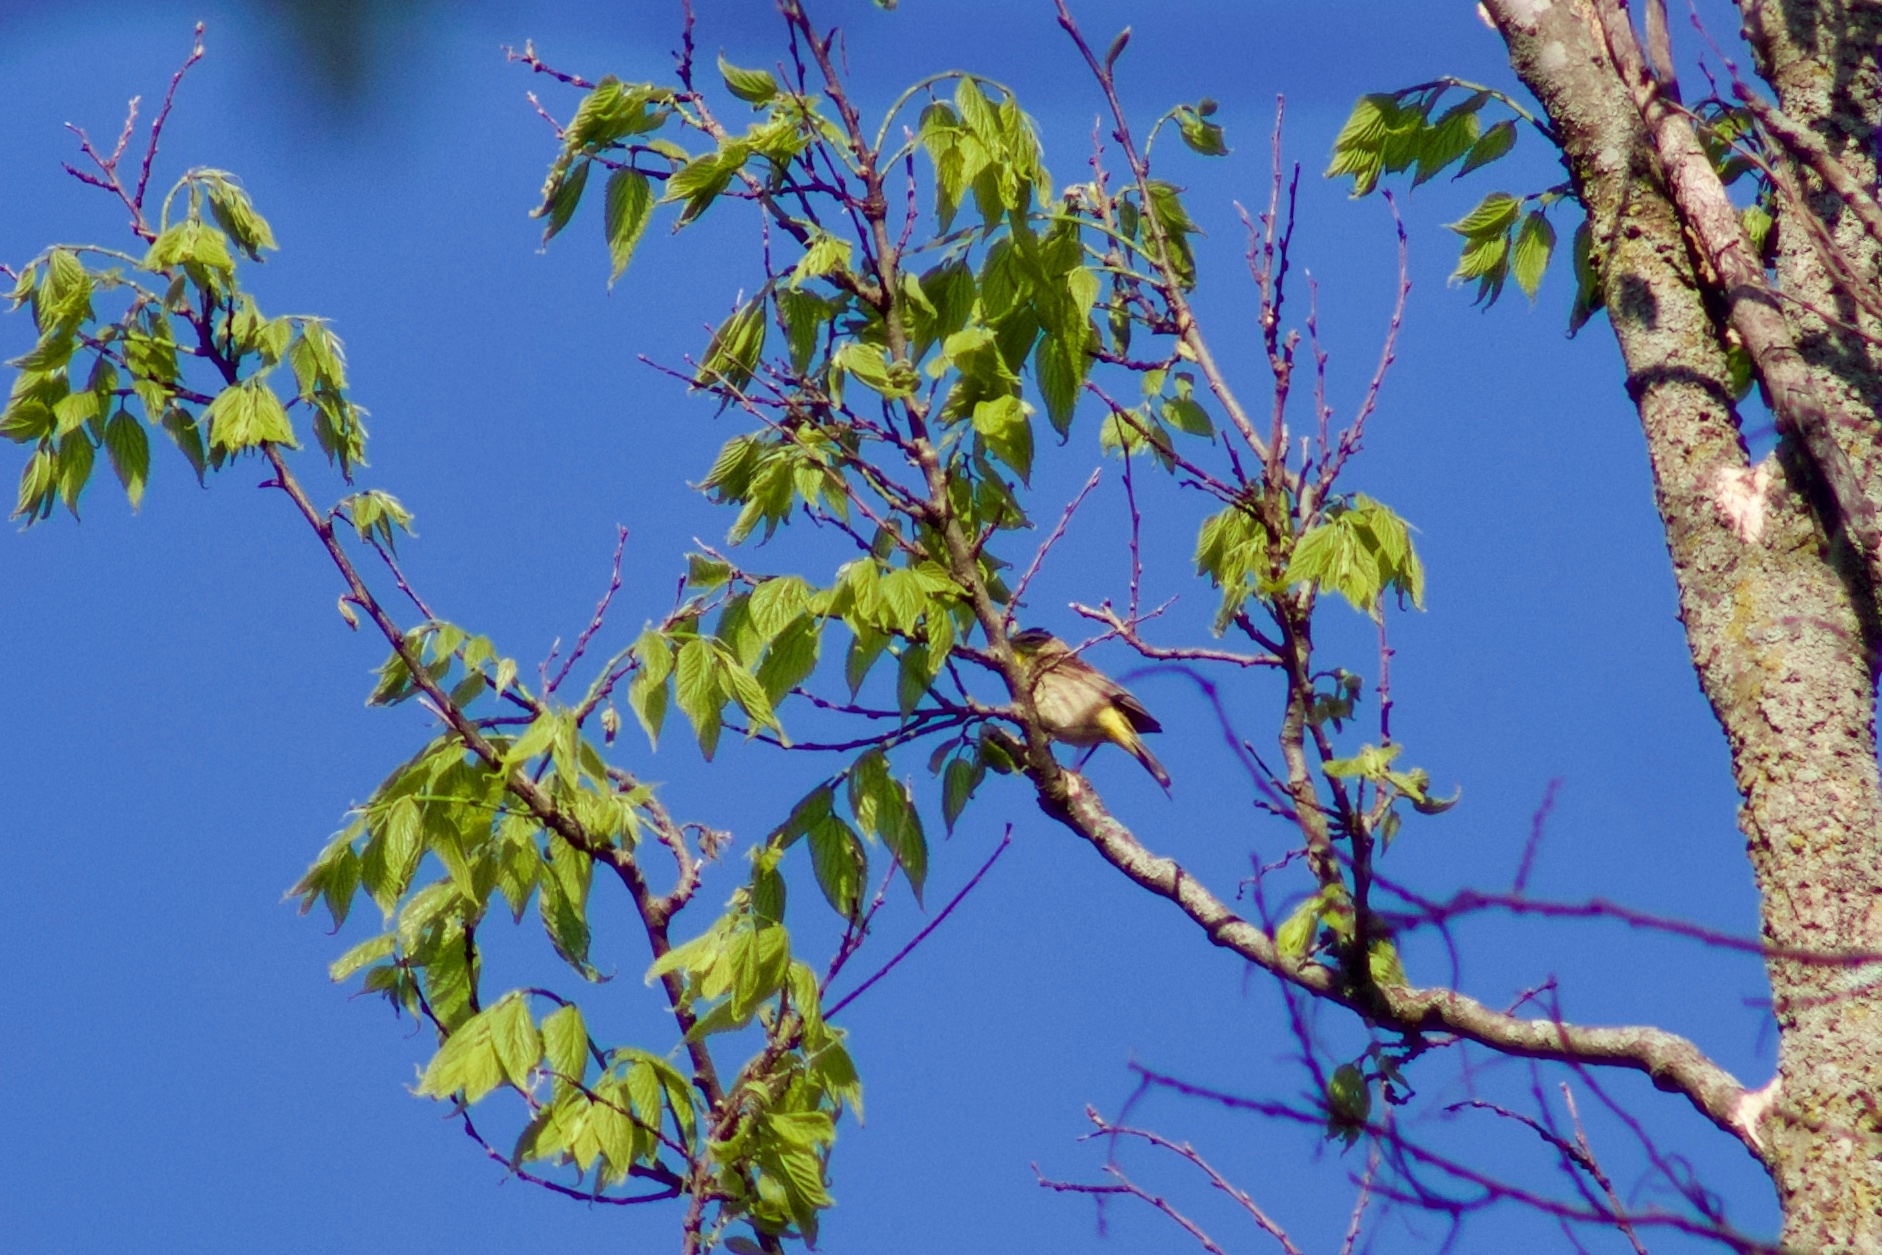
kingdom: Animalia
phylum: Chordata
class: Aves
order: Passeriformes
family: Parulidae
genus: Setophaga
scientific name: Setophaga palmarum
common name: Palm warbler
